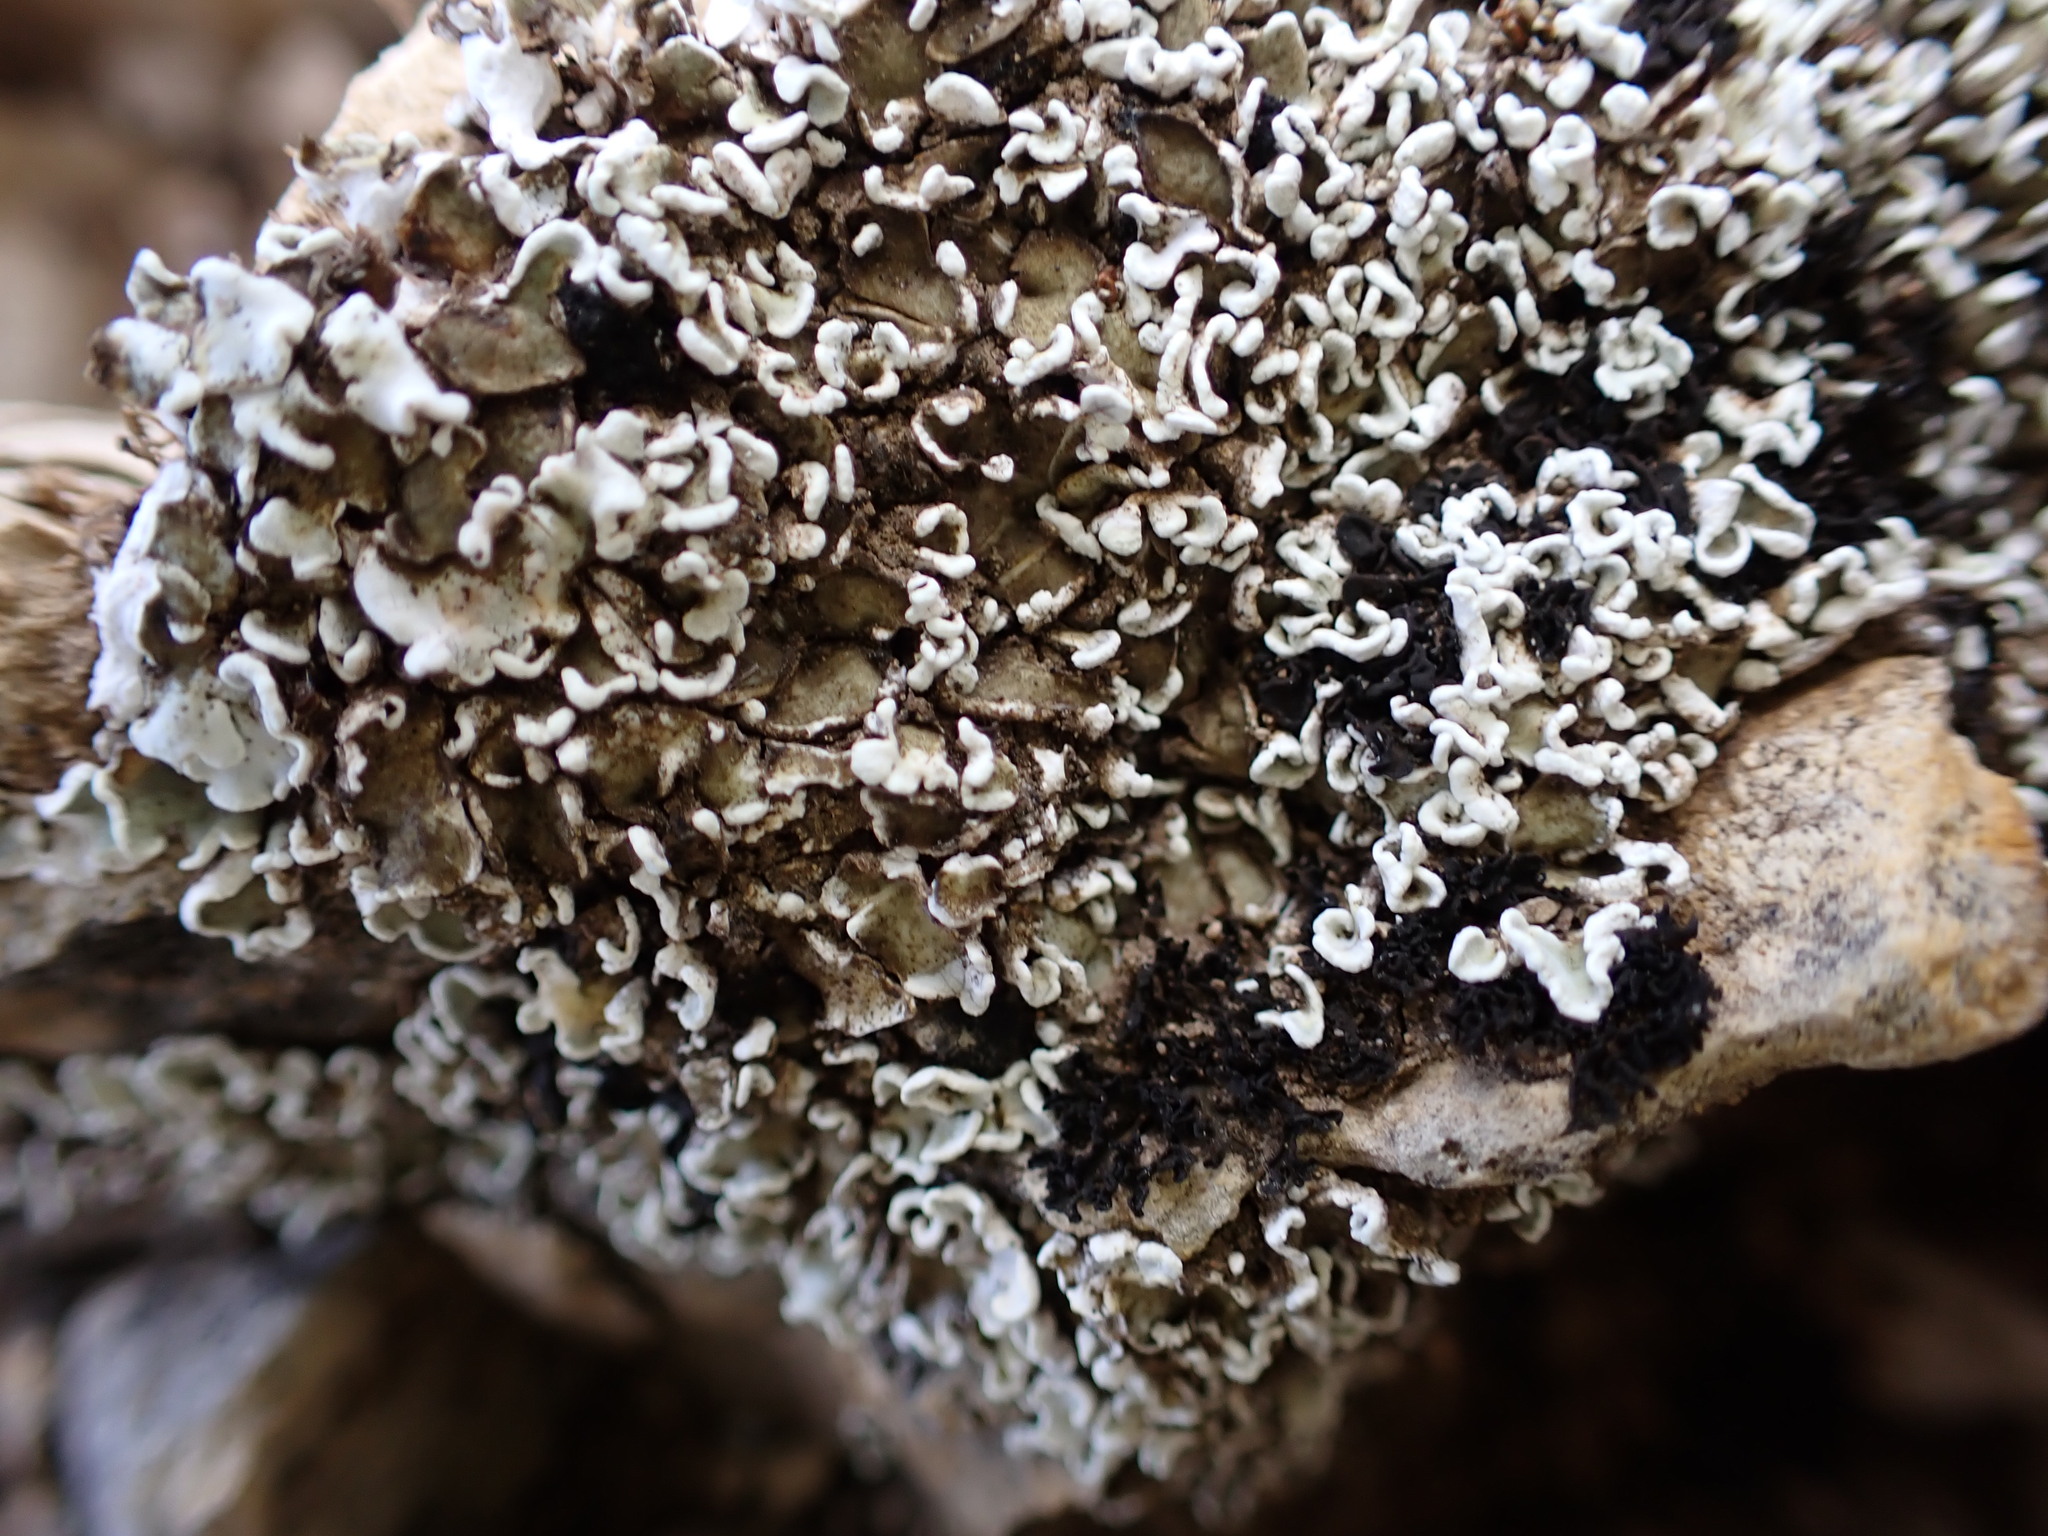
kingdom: Fungi
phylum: Ascomycota
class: Lecanoromycetes
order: Lecanorales
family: Stereocaulaceae
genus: Squamarina
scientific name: Squamarina concrescens
